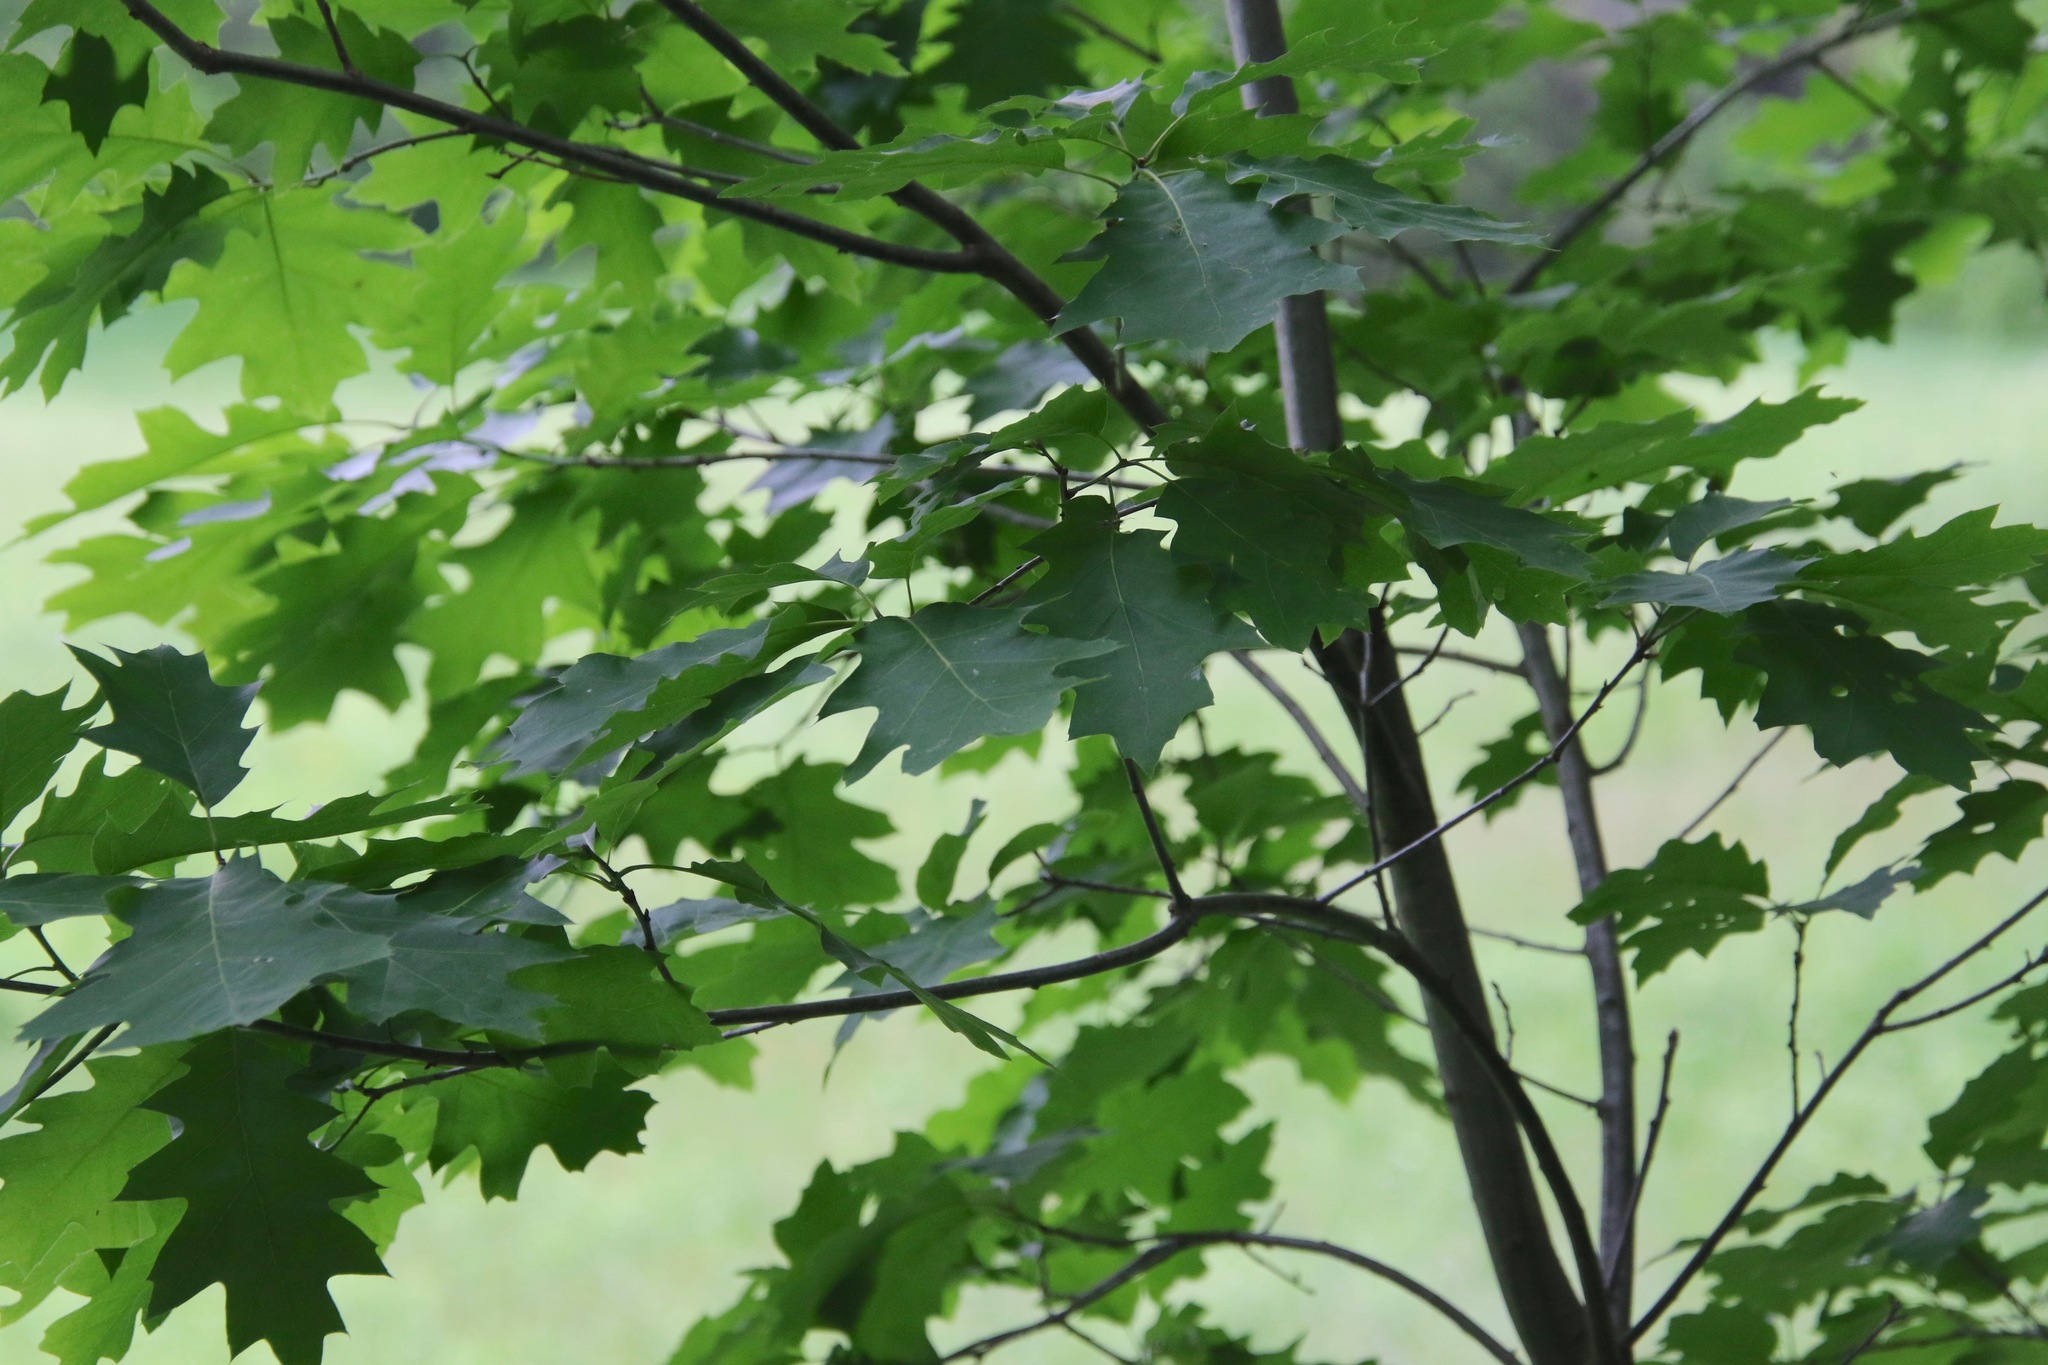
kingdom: Plantae
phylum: Tracheophyta
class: Magnoliopsida
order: Fagales
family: Fagaceae
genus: Quercus
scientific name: Quercus rubra
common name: Red oak
